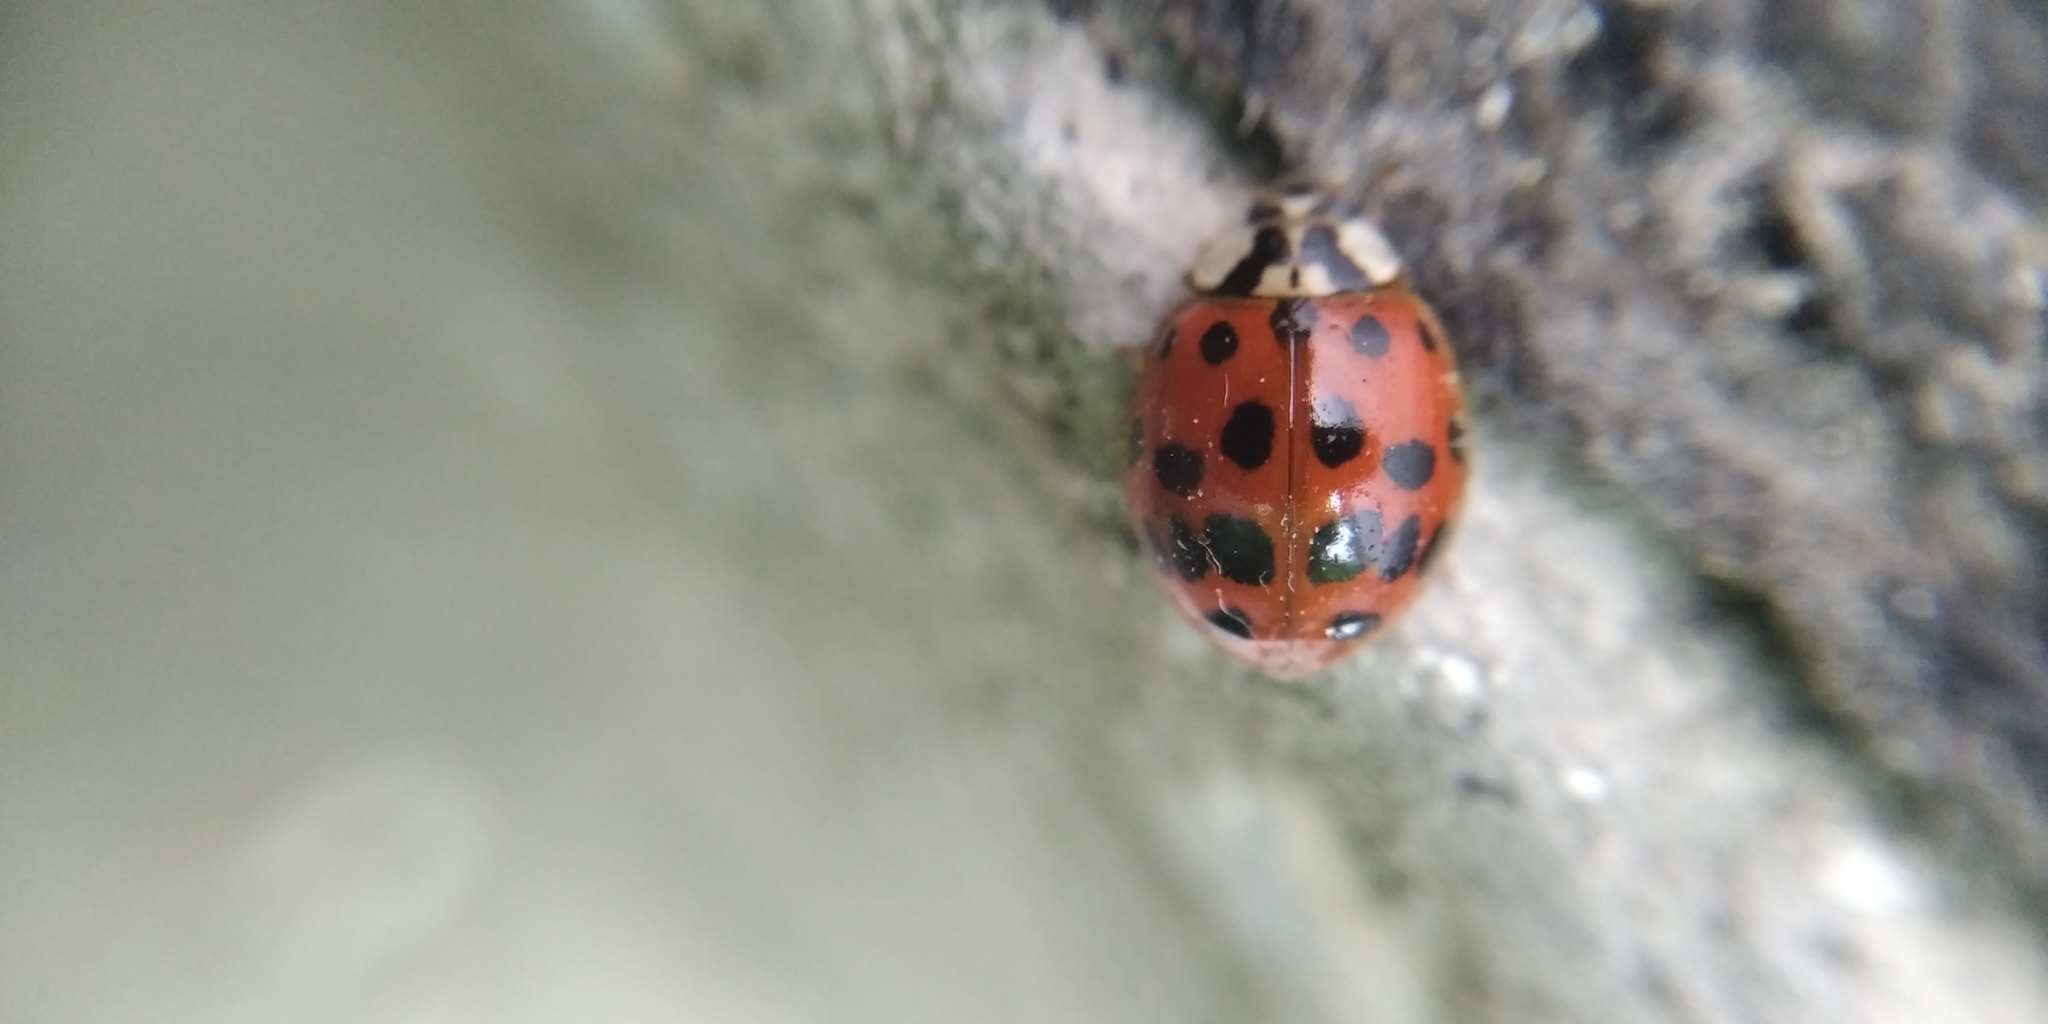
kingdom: Animalia
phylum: Arthropoda
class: Insecta
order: Coleoptera
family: Coccinellidae
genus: Harmonia
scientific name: Harmonia axyridis
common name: Harlequin ladybird
